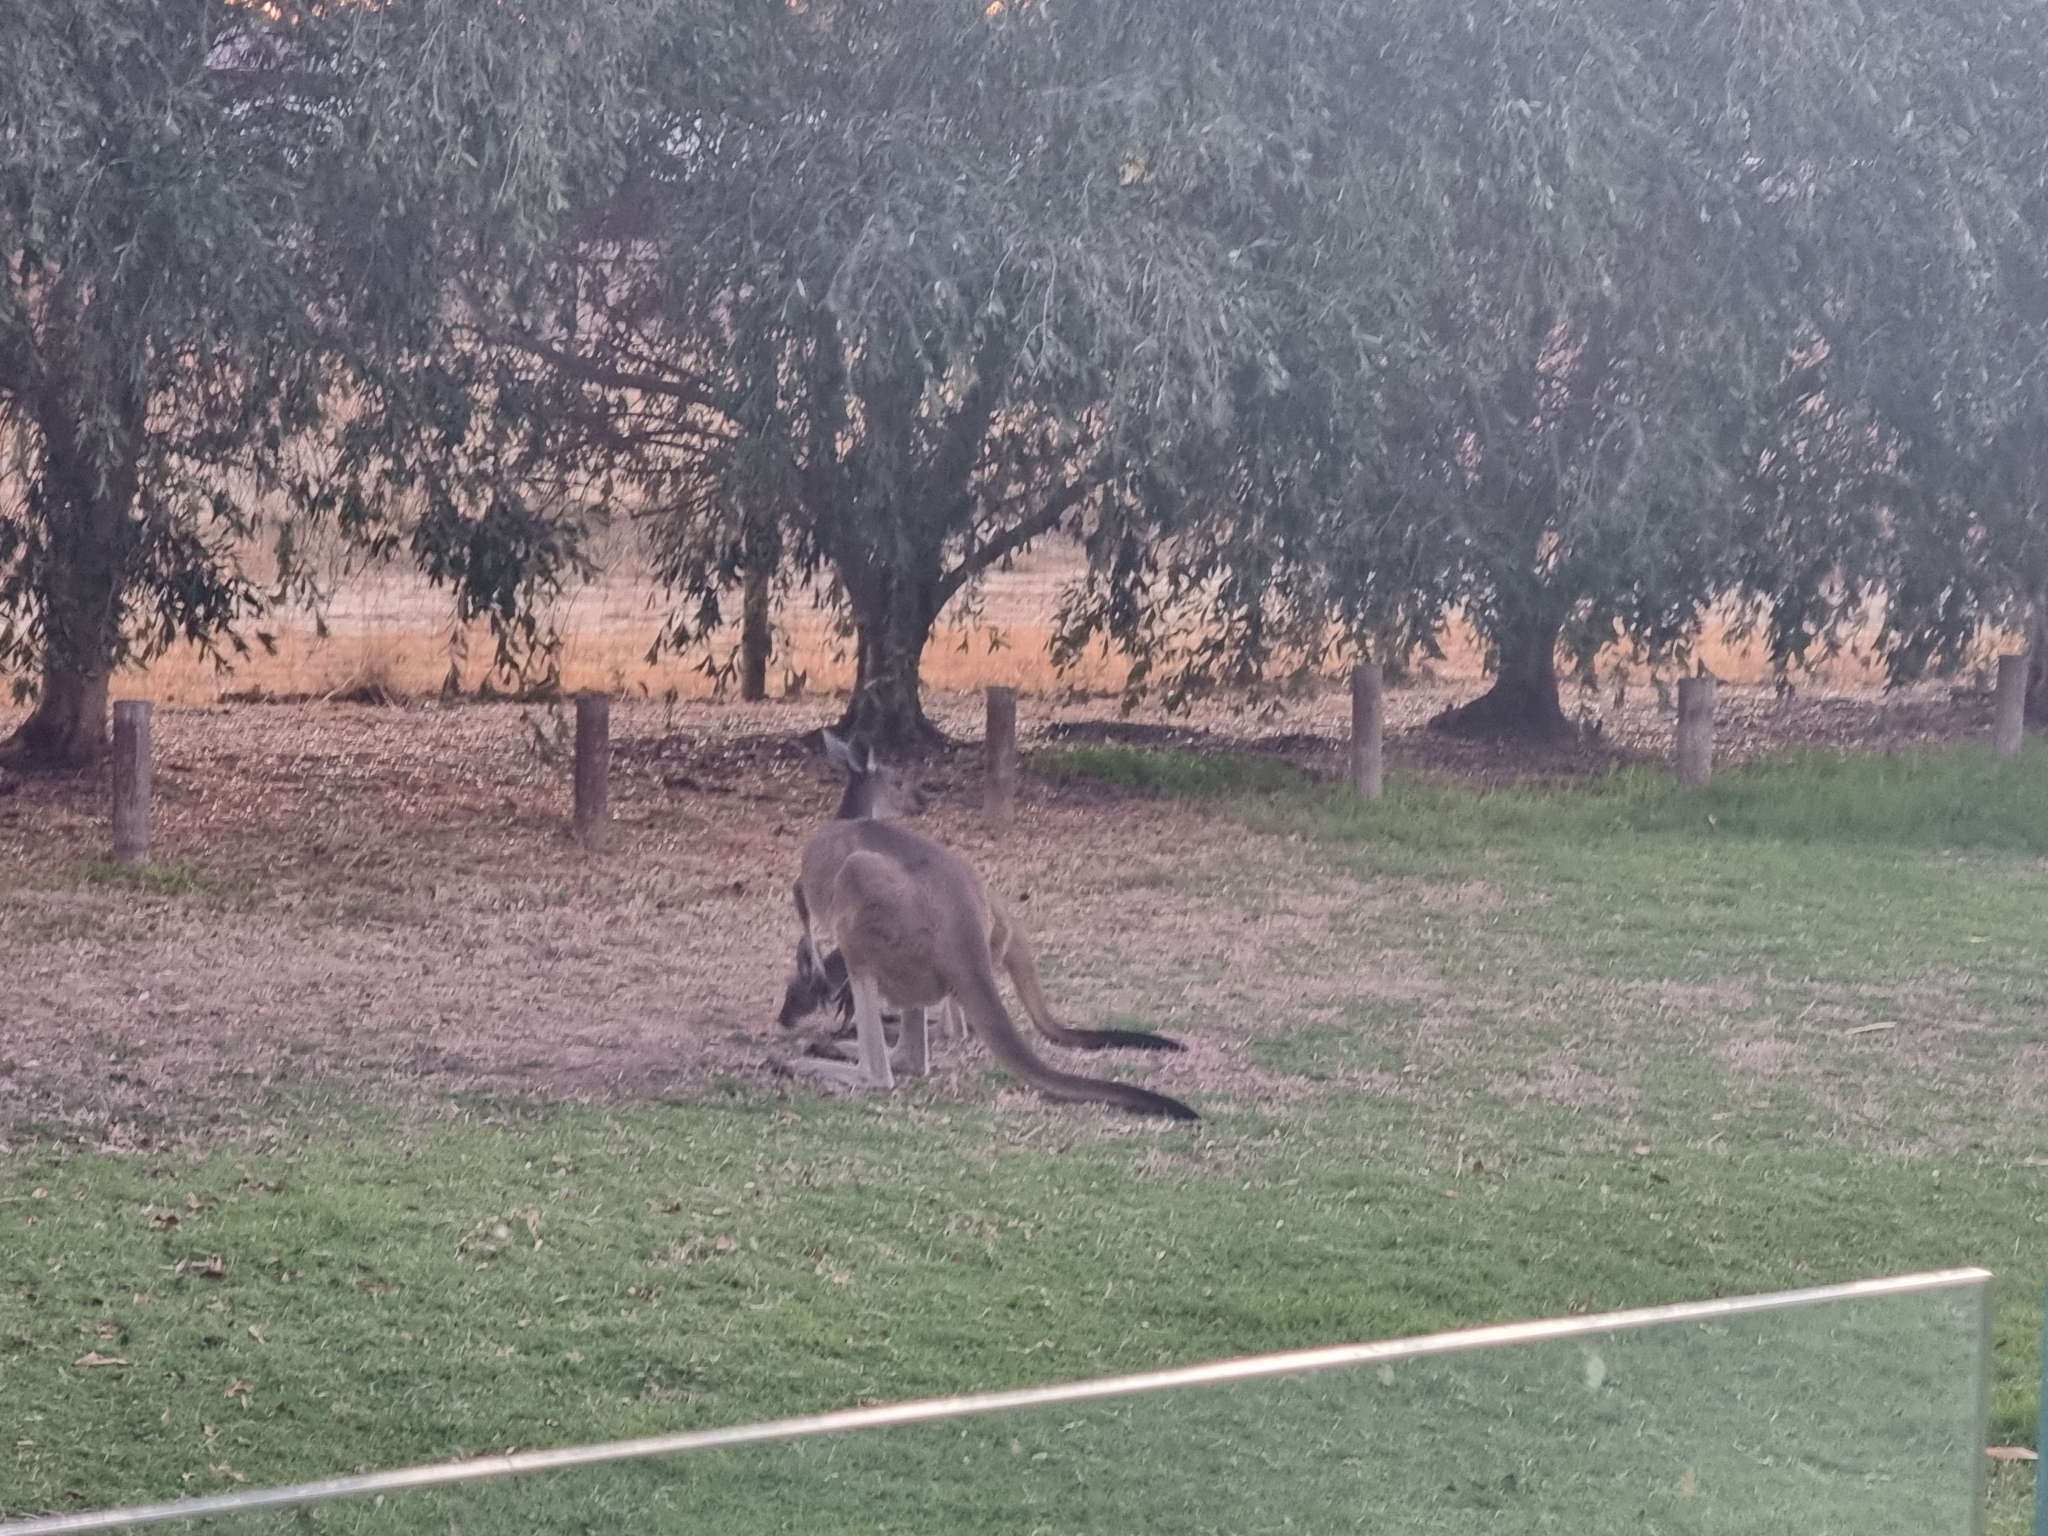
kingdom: Animalia
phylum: Chordata
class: Mammalia
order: Diprotodontia
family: Macropodidae
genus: Macropus
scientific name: Macropus fuliginosus
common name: Western grey kangaroo
